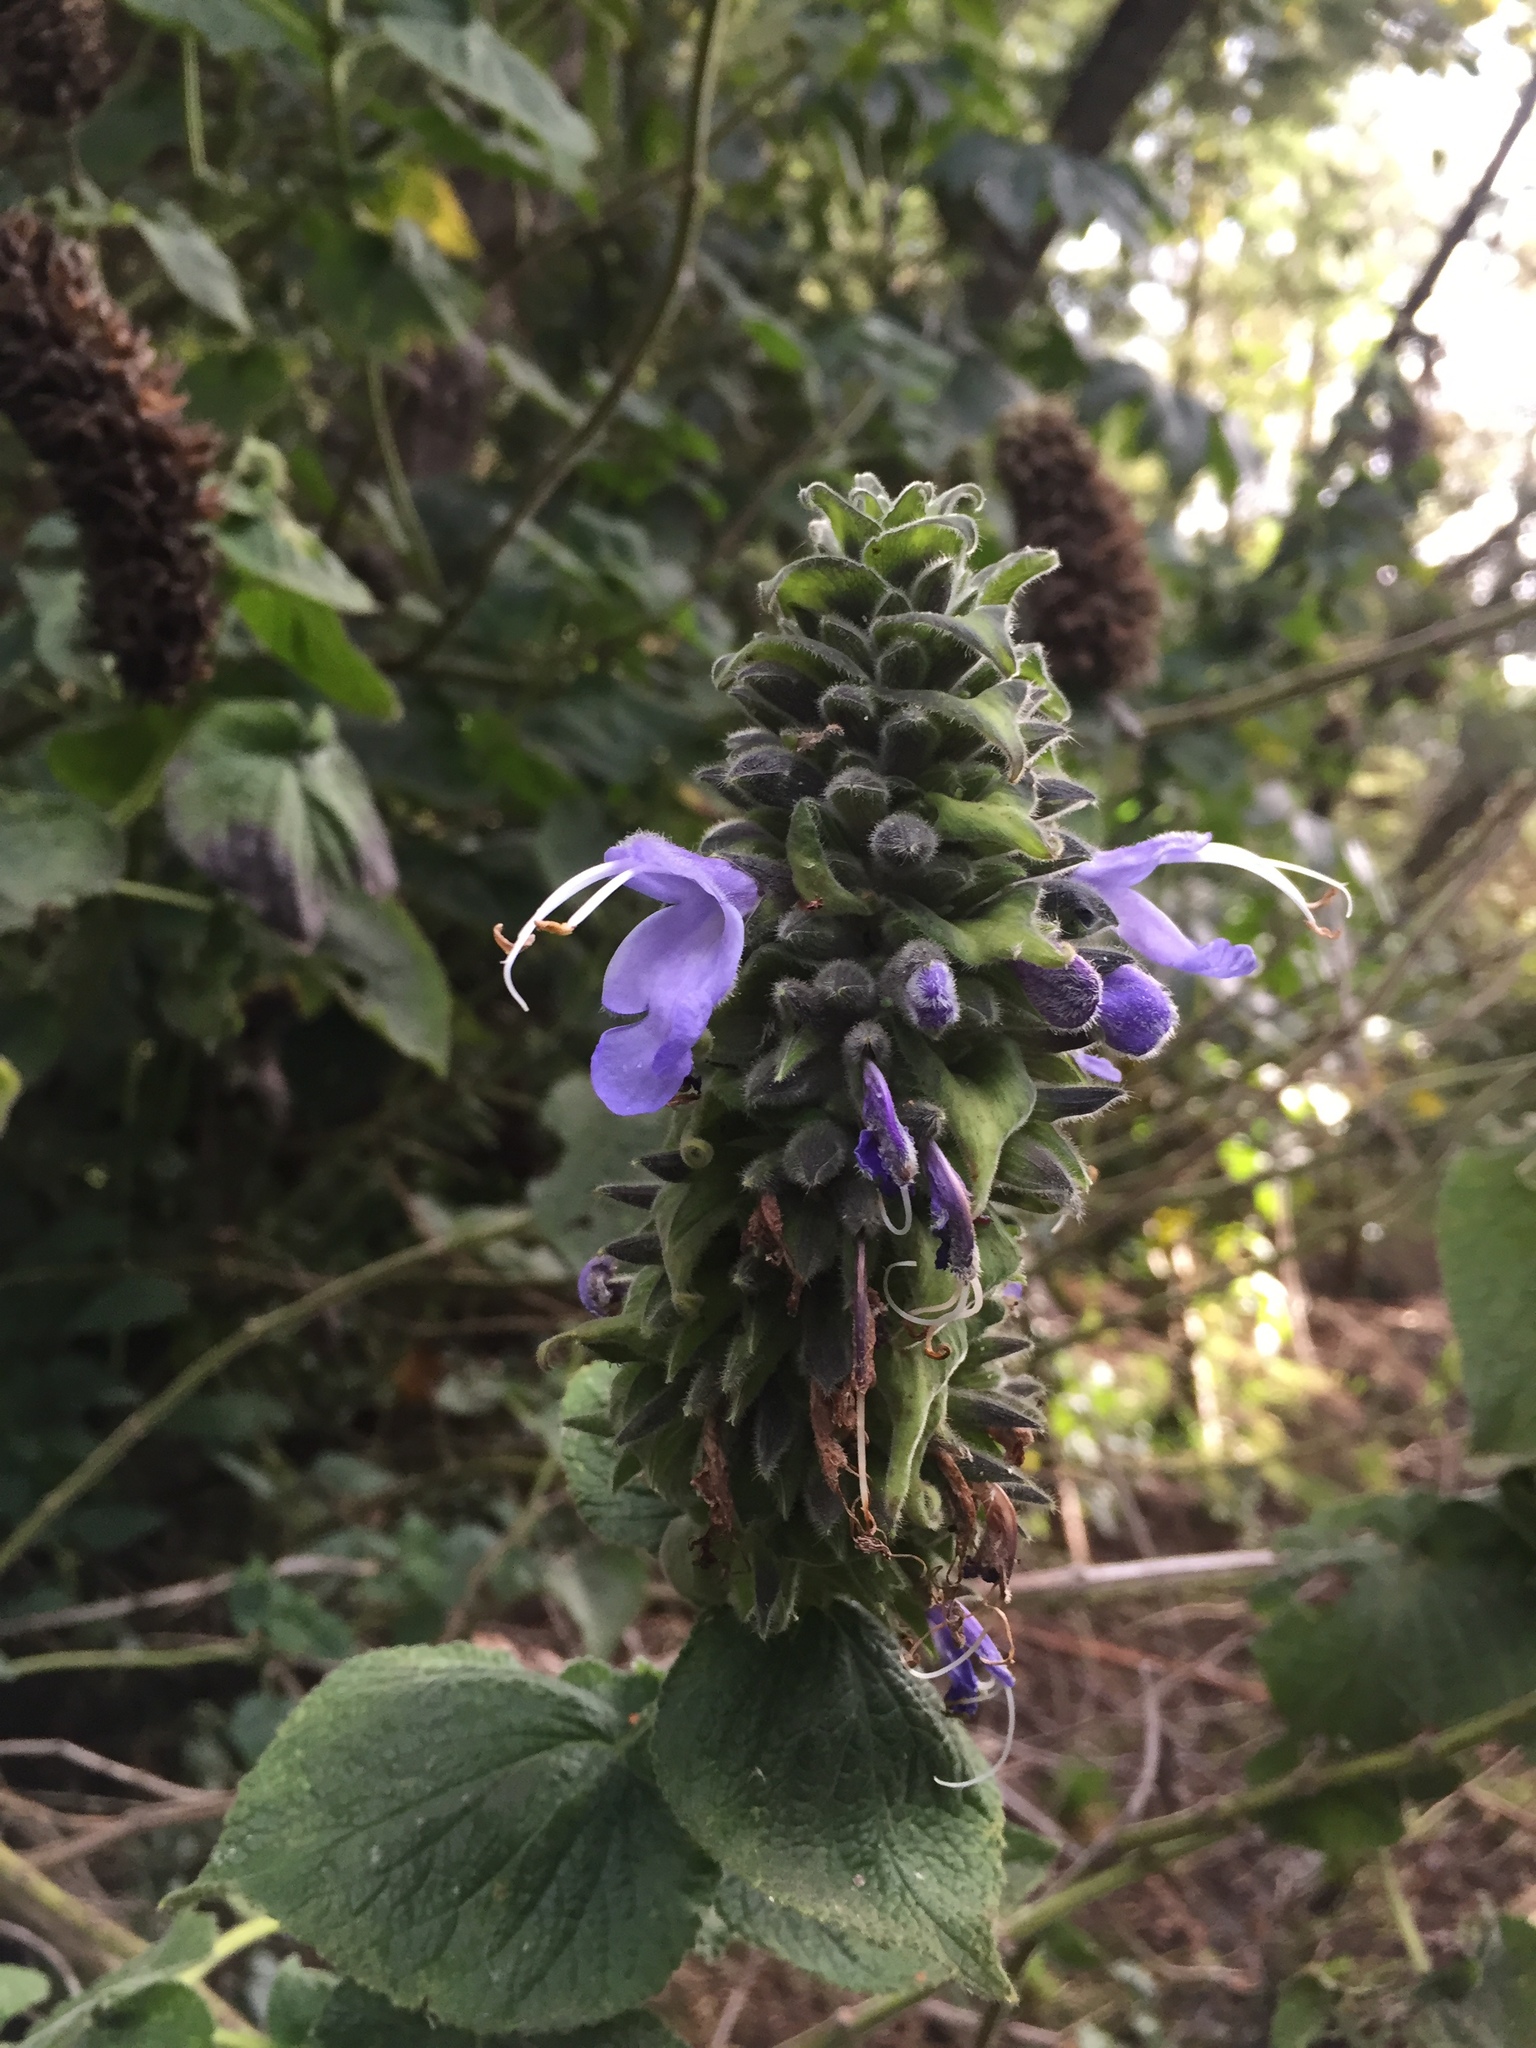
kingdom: Plantae
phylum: Tracheophyta
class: Magnoliopsida
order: Lamiales
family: Lamiaceae
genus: Salvia
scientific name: Salvia macrostachya
